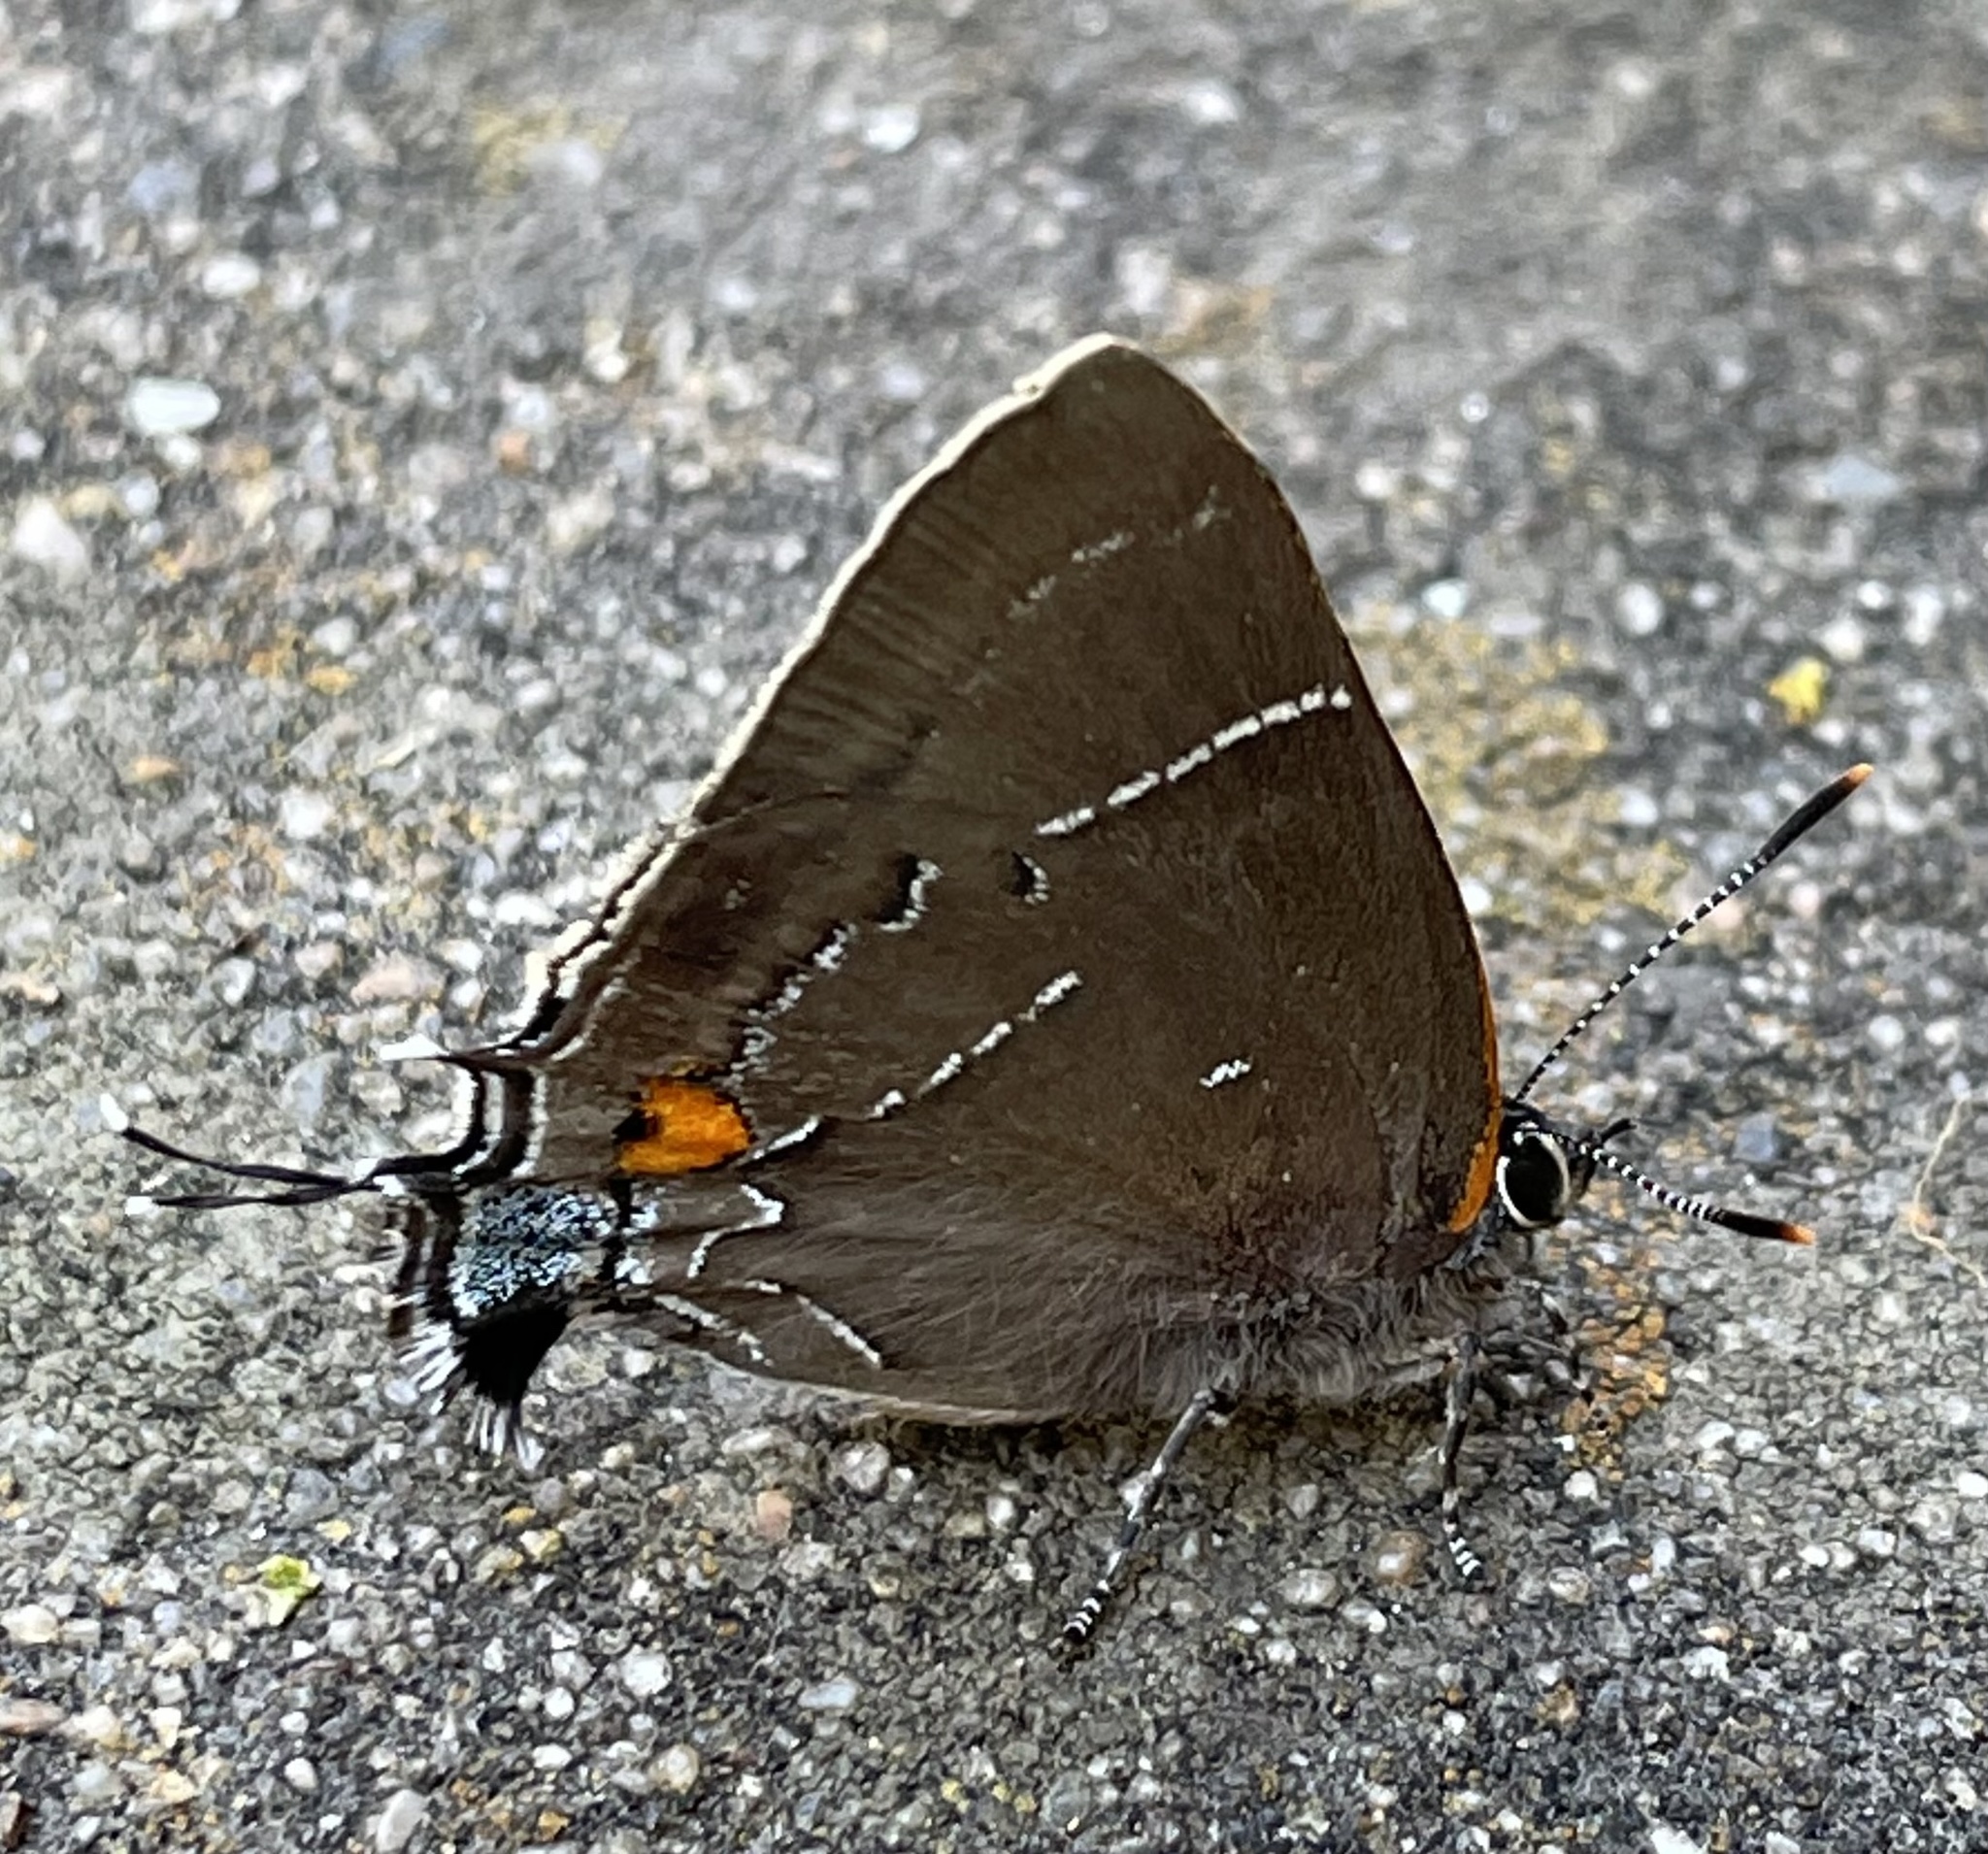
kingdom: Animalia
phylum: Arthropoda
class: Insecta
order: Lepidoptera
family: Lycaenidae
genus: Parrhasius
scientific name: Parrhasius m-album
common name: White m hairstreak
